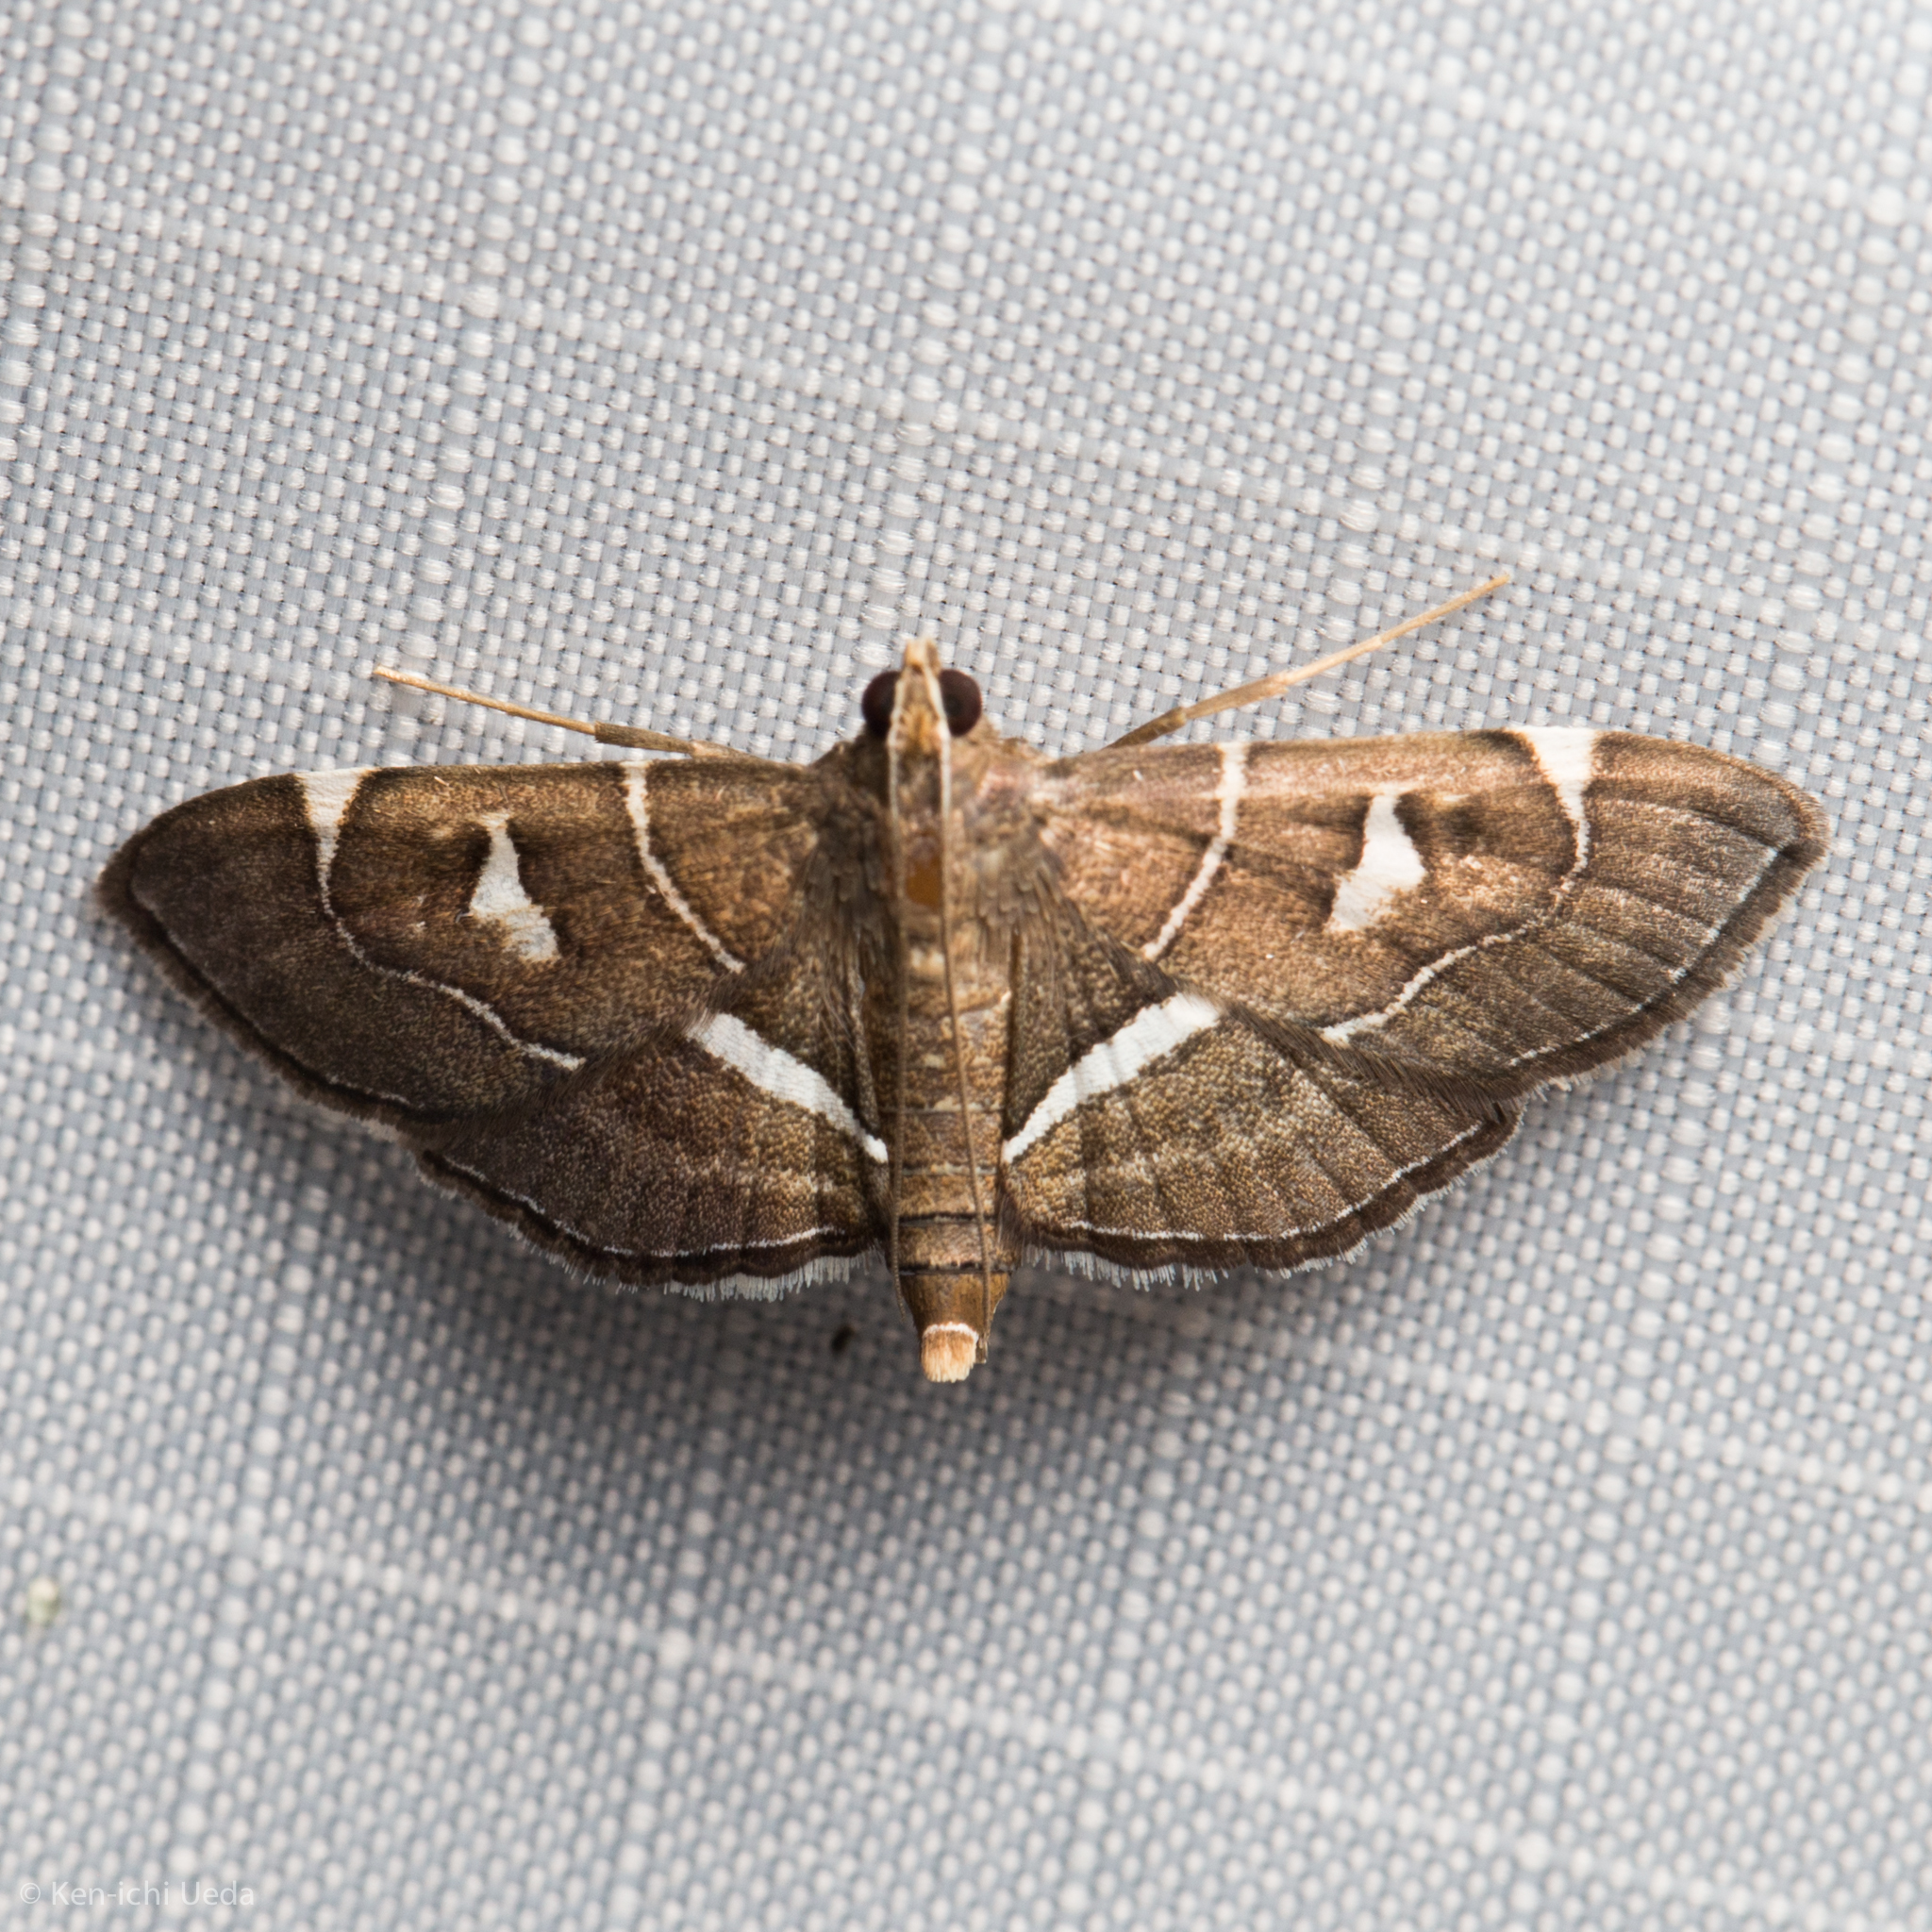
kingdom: Animalia
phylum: Arthropoda
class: Insecta
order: Lepidoptera
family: Crambidae
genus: Lamprosema
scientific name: Lamprosema canacealis
